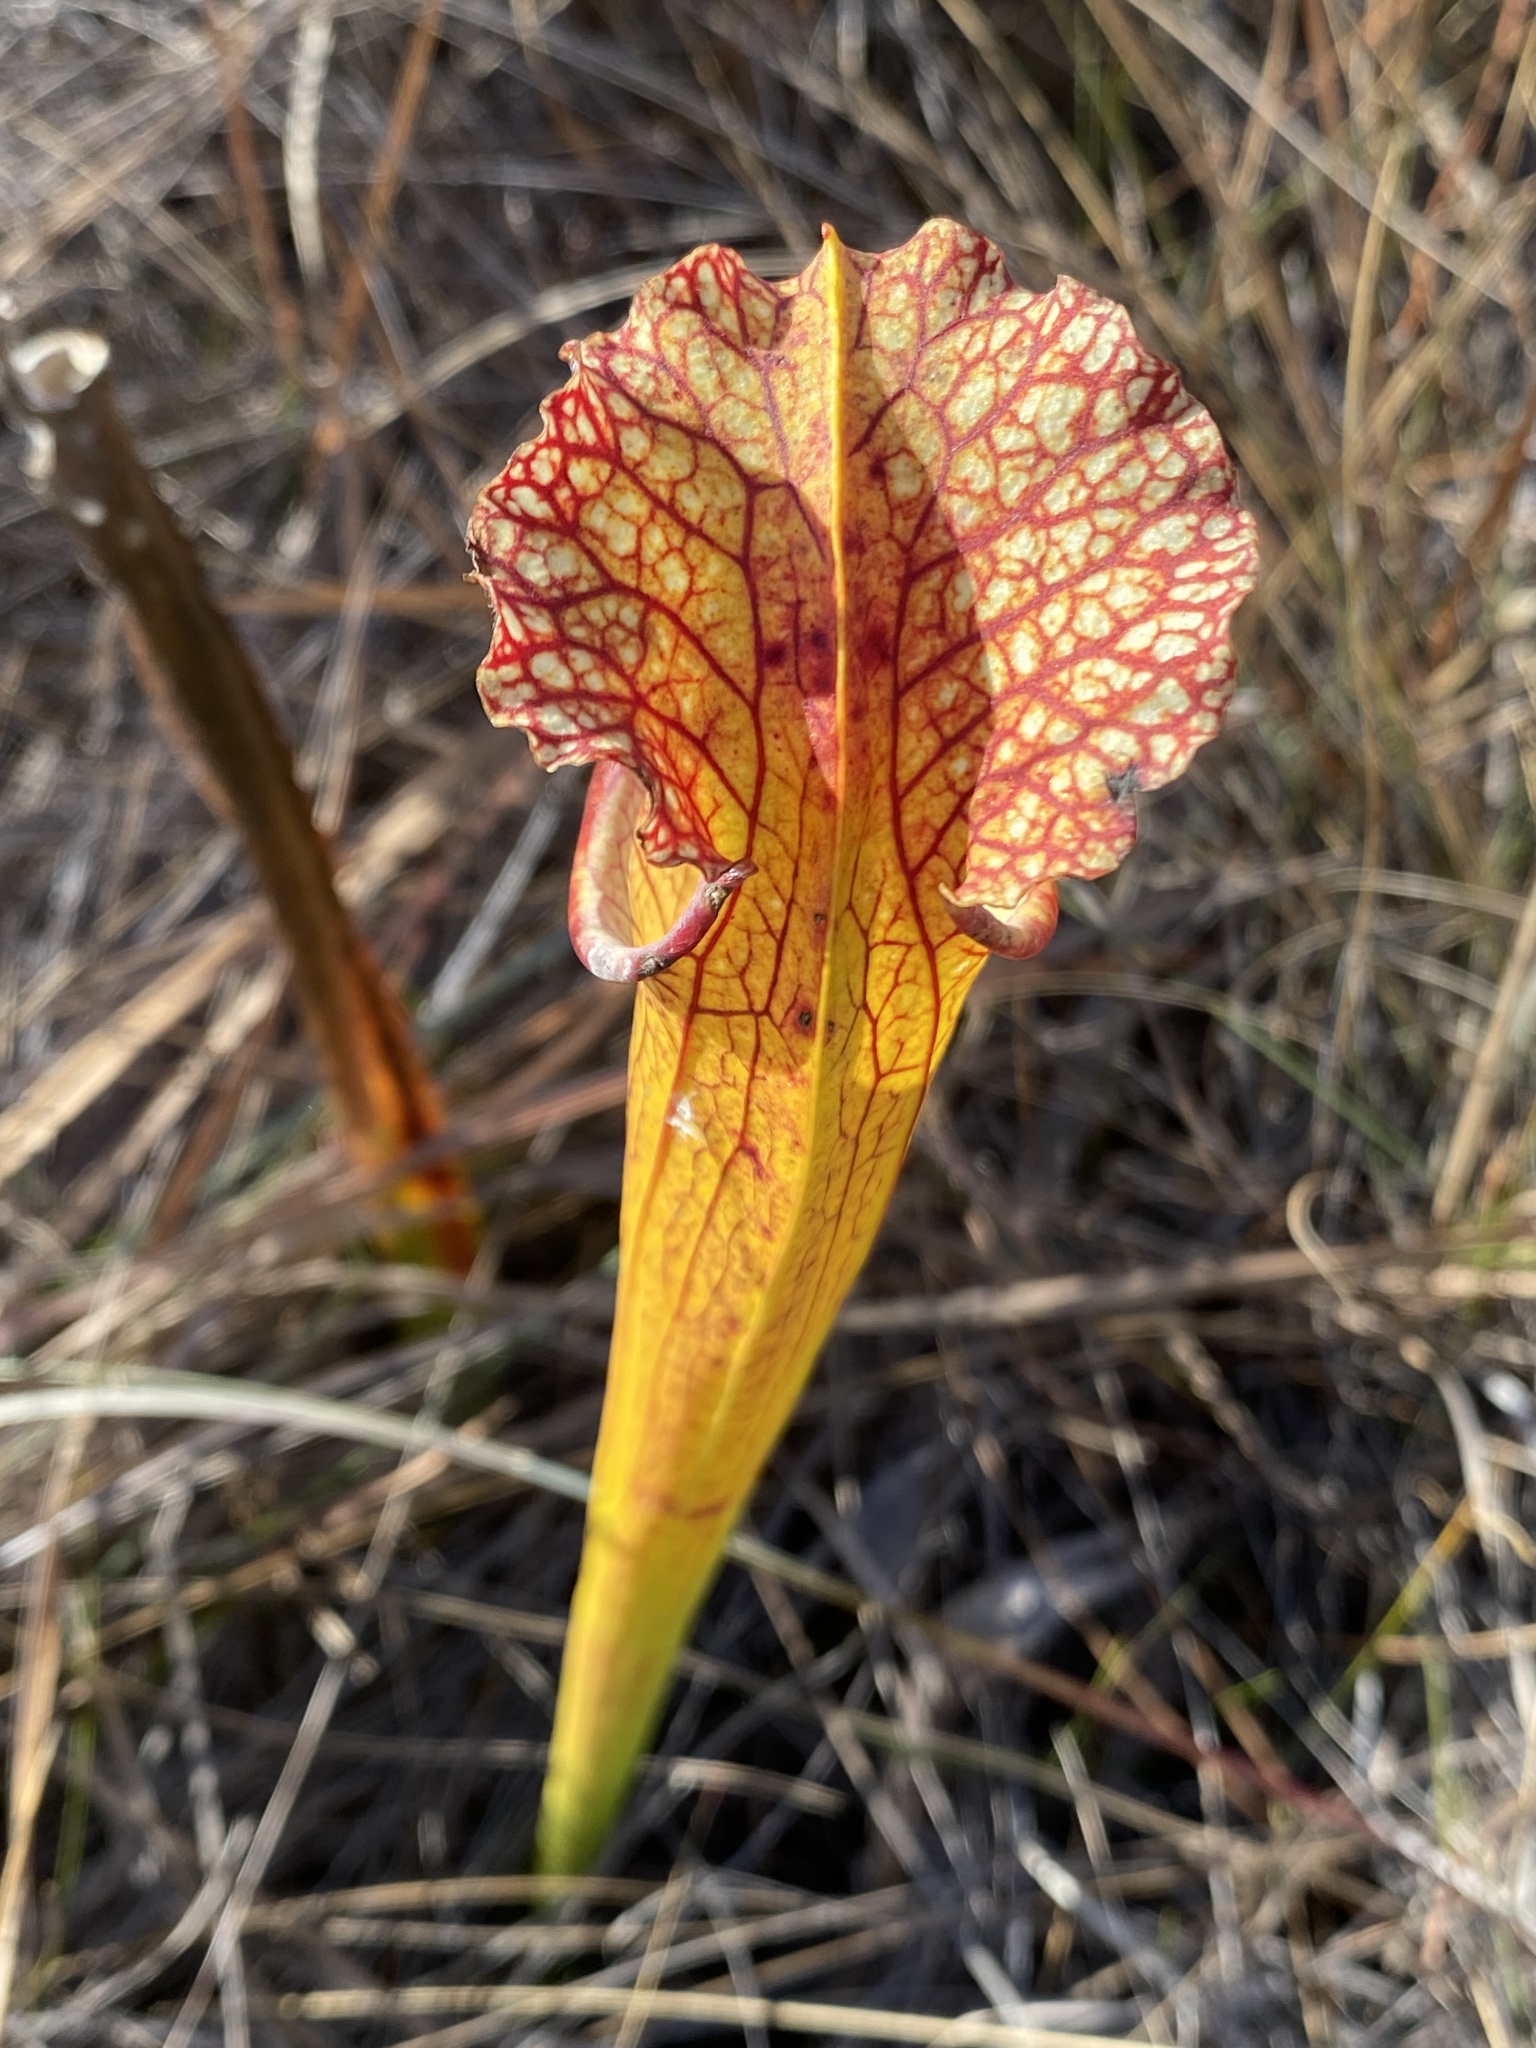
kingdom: Plantae
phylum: Tracheophyta
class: Magnoliopsida
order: Ericales
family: Sarraceniaceae
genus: Sarracenia
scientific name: Sarracenia moorei
